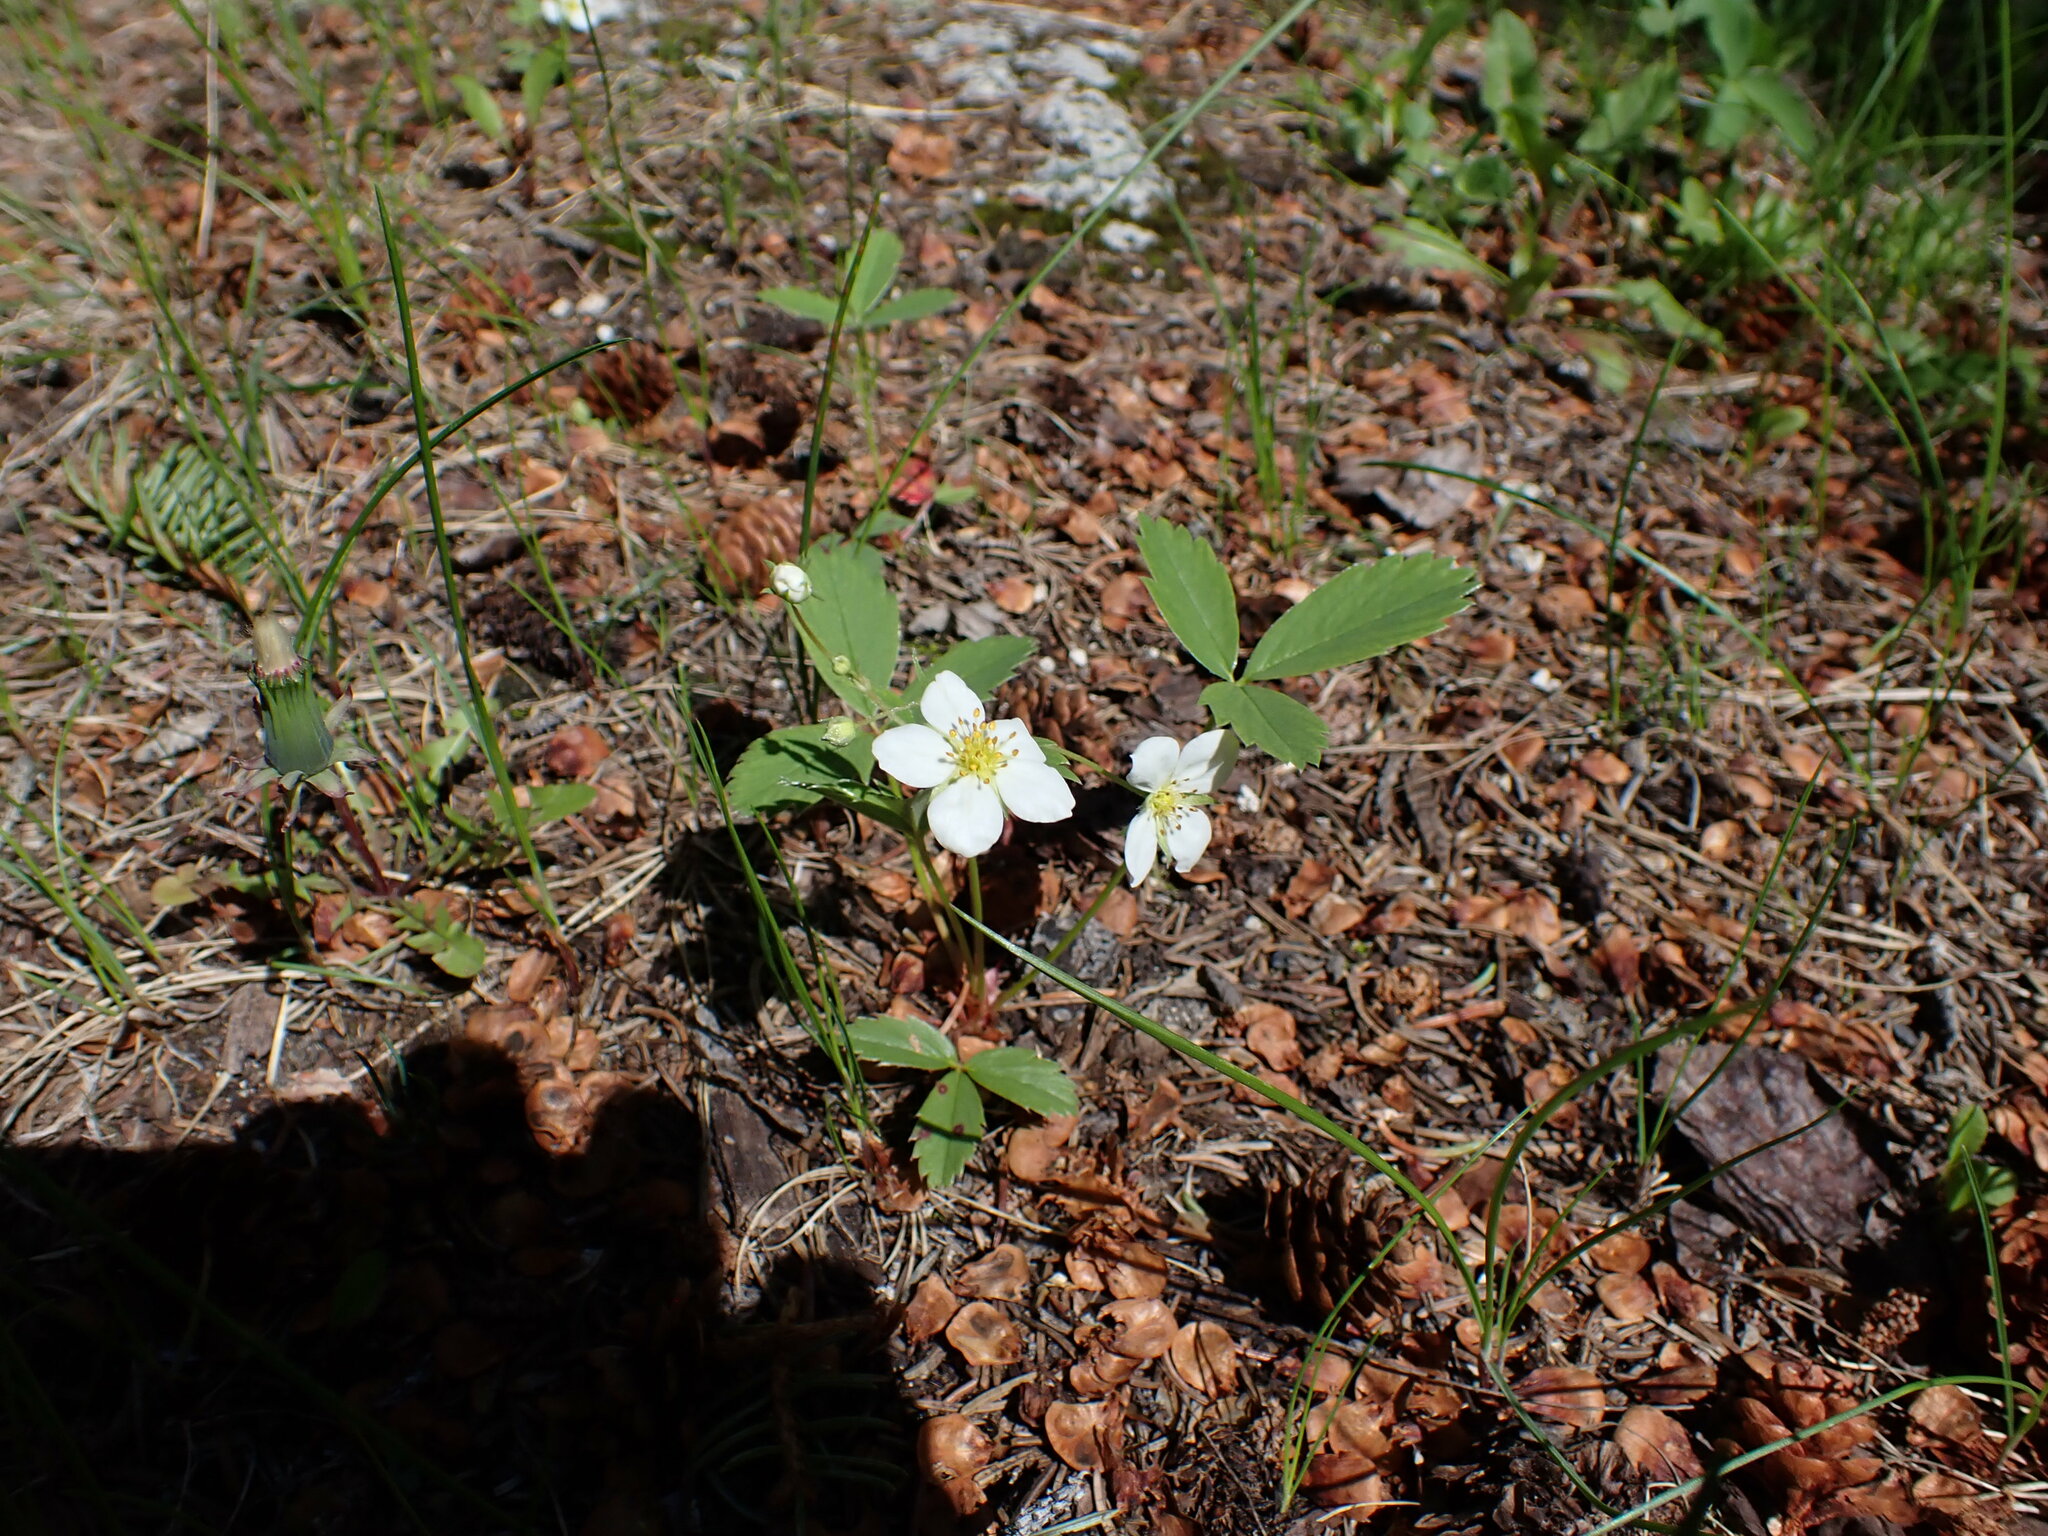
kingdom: Plantae
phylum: Tracheophyta
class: Magnoliopsida
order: Rosales
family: Rosaceae
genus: Fragaria
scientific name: Fragaria virginiana
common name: Thickleaved wild strawberry
